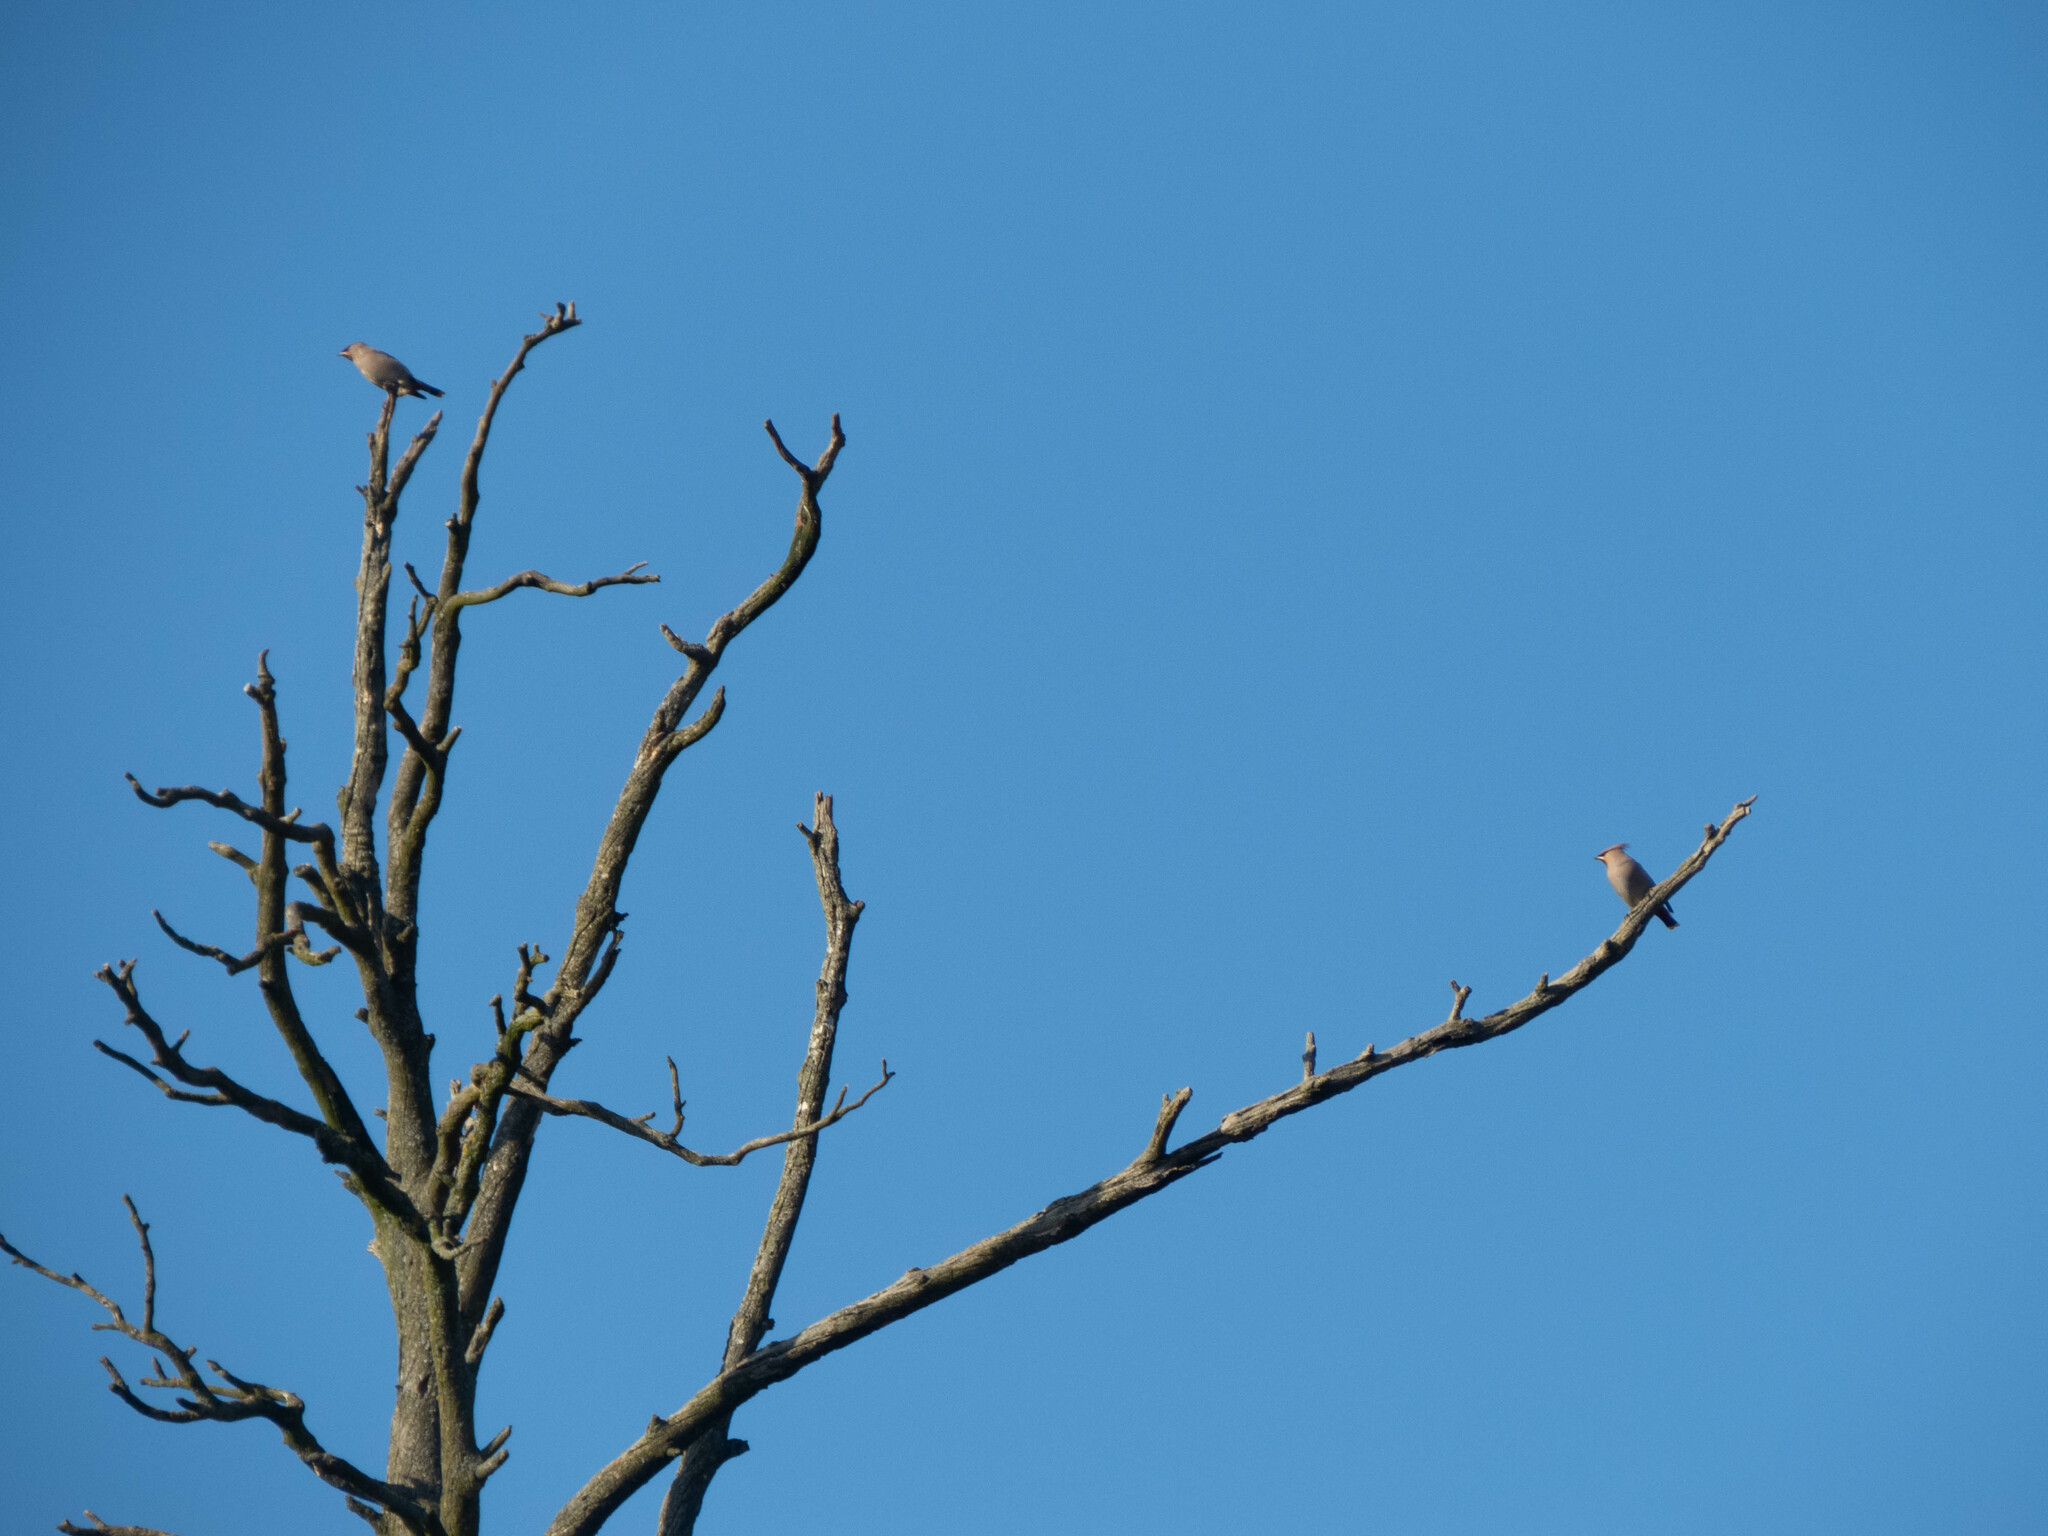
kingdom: Animalia
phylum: Chordata
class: Aves
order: Passeriformes
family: Bombycillidae
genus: Bombycilla
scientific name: Bombycilla garrulus
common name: Bohemian waxwing
